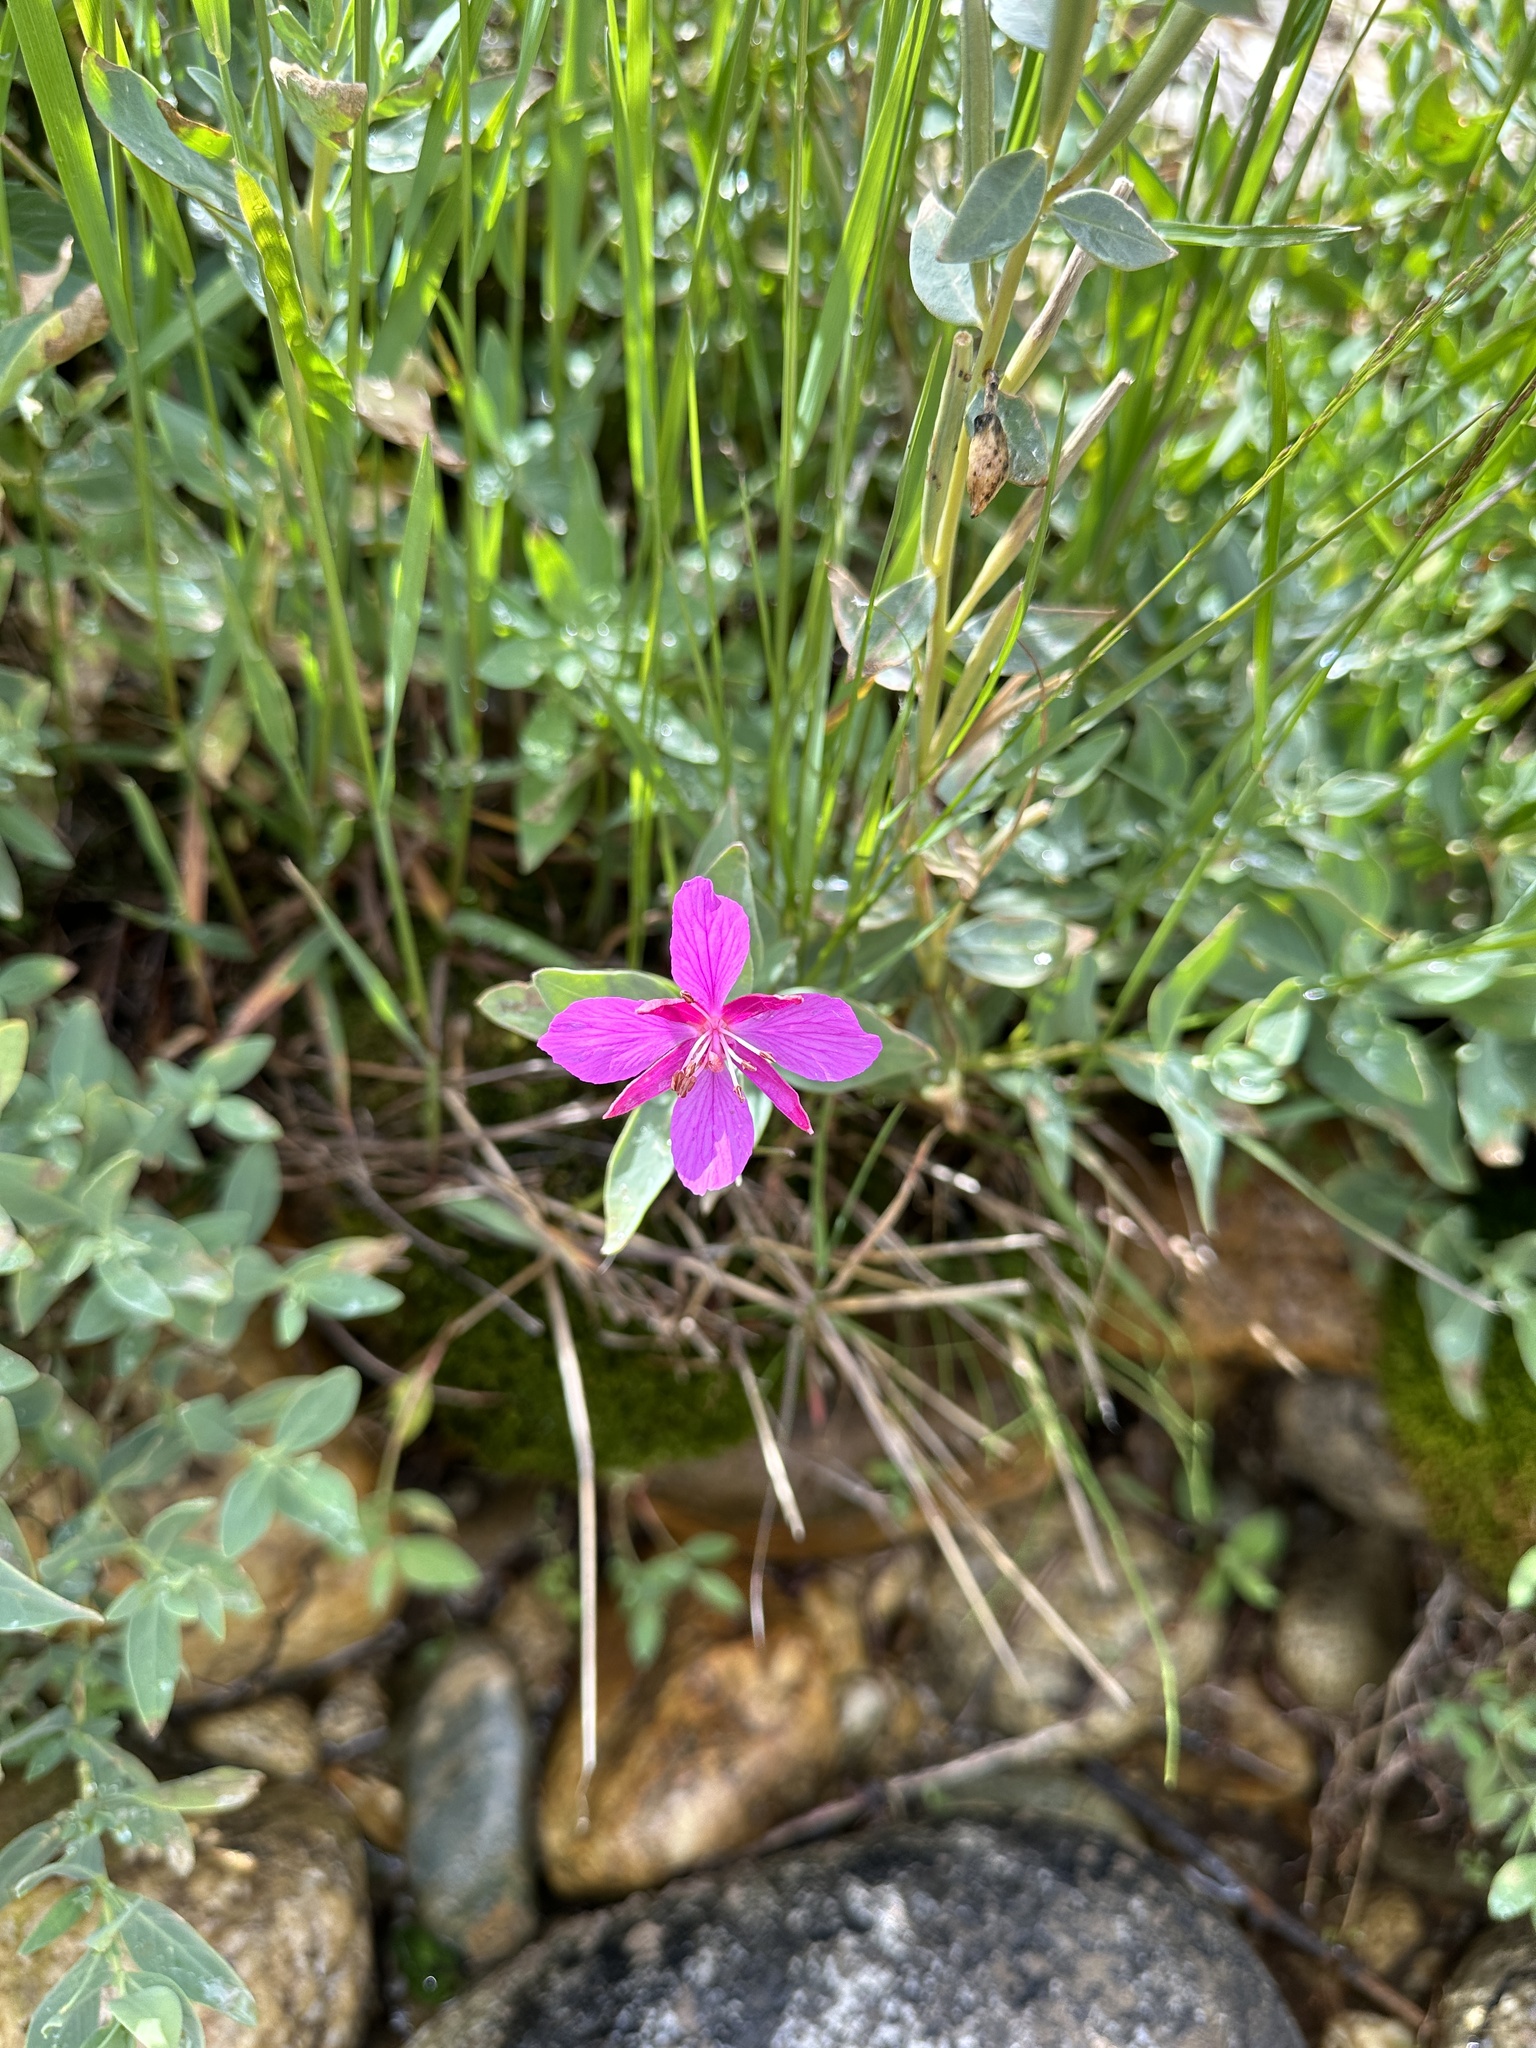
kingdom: Plantae
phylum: Tracheophyta
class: Magnoliopsida
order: Myrtales
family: Onagraceae
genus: Chamaenerion
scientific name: Chamaenerion latifolium
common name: Dwarf fireweed
